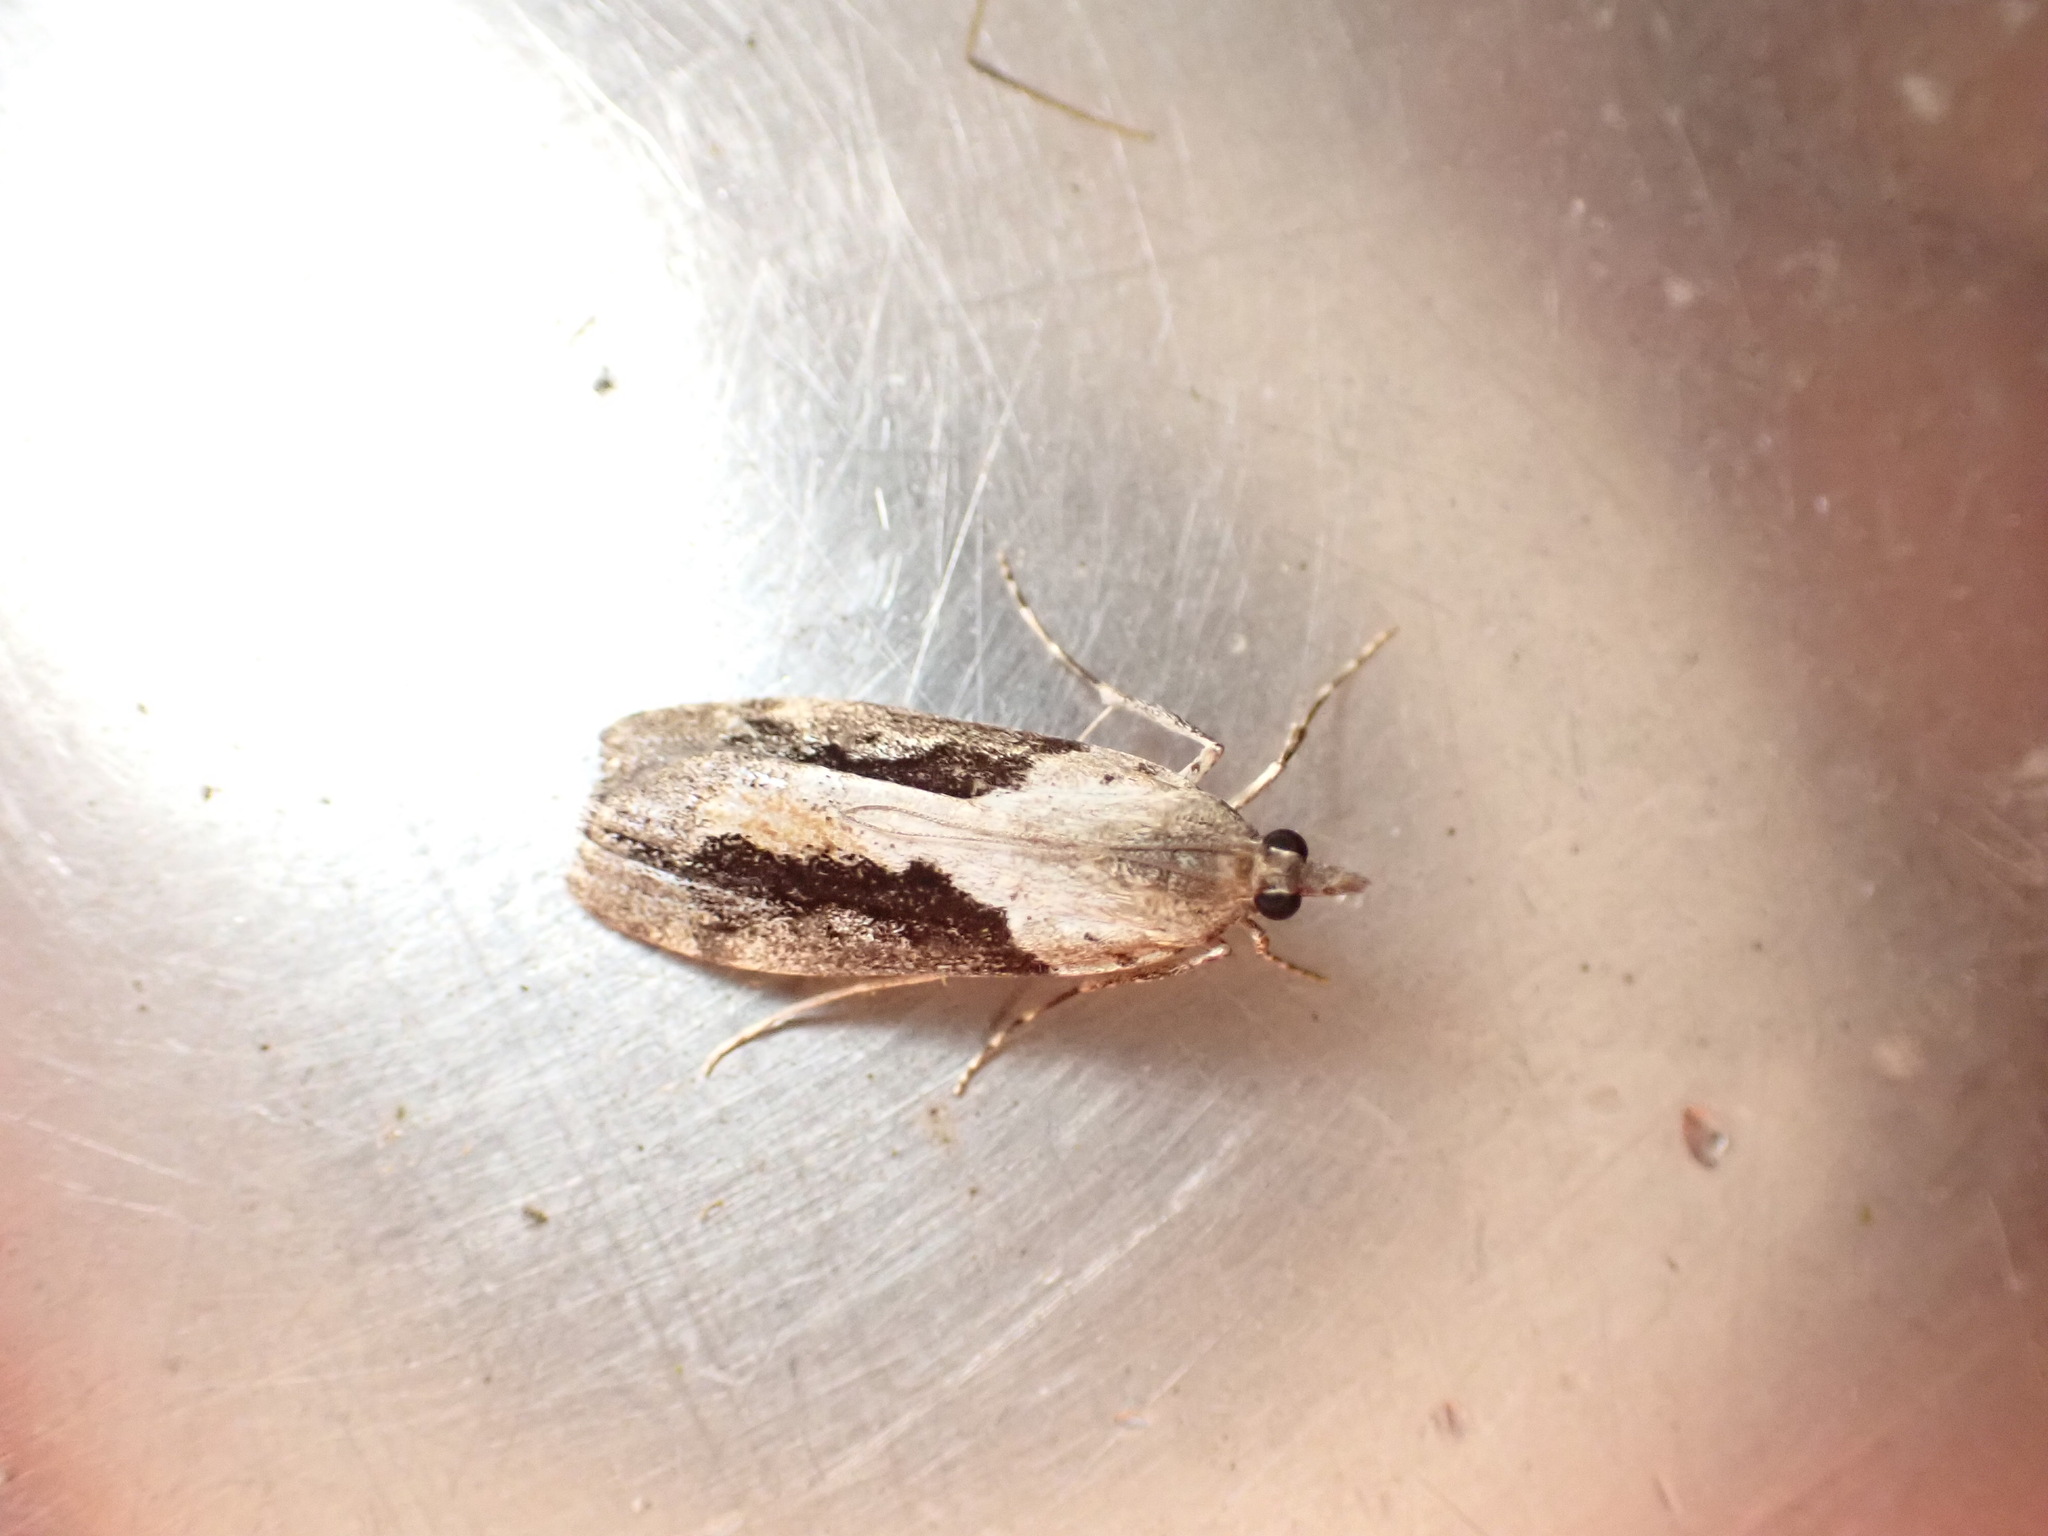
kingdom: Animalia
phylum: Arthropoda
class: Insecta
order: Lepidoptera
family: Crambidae
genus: Eudonia
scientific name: Eudonia submarginalis
